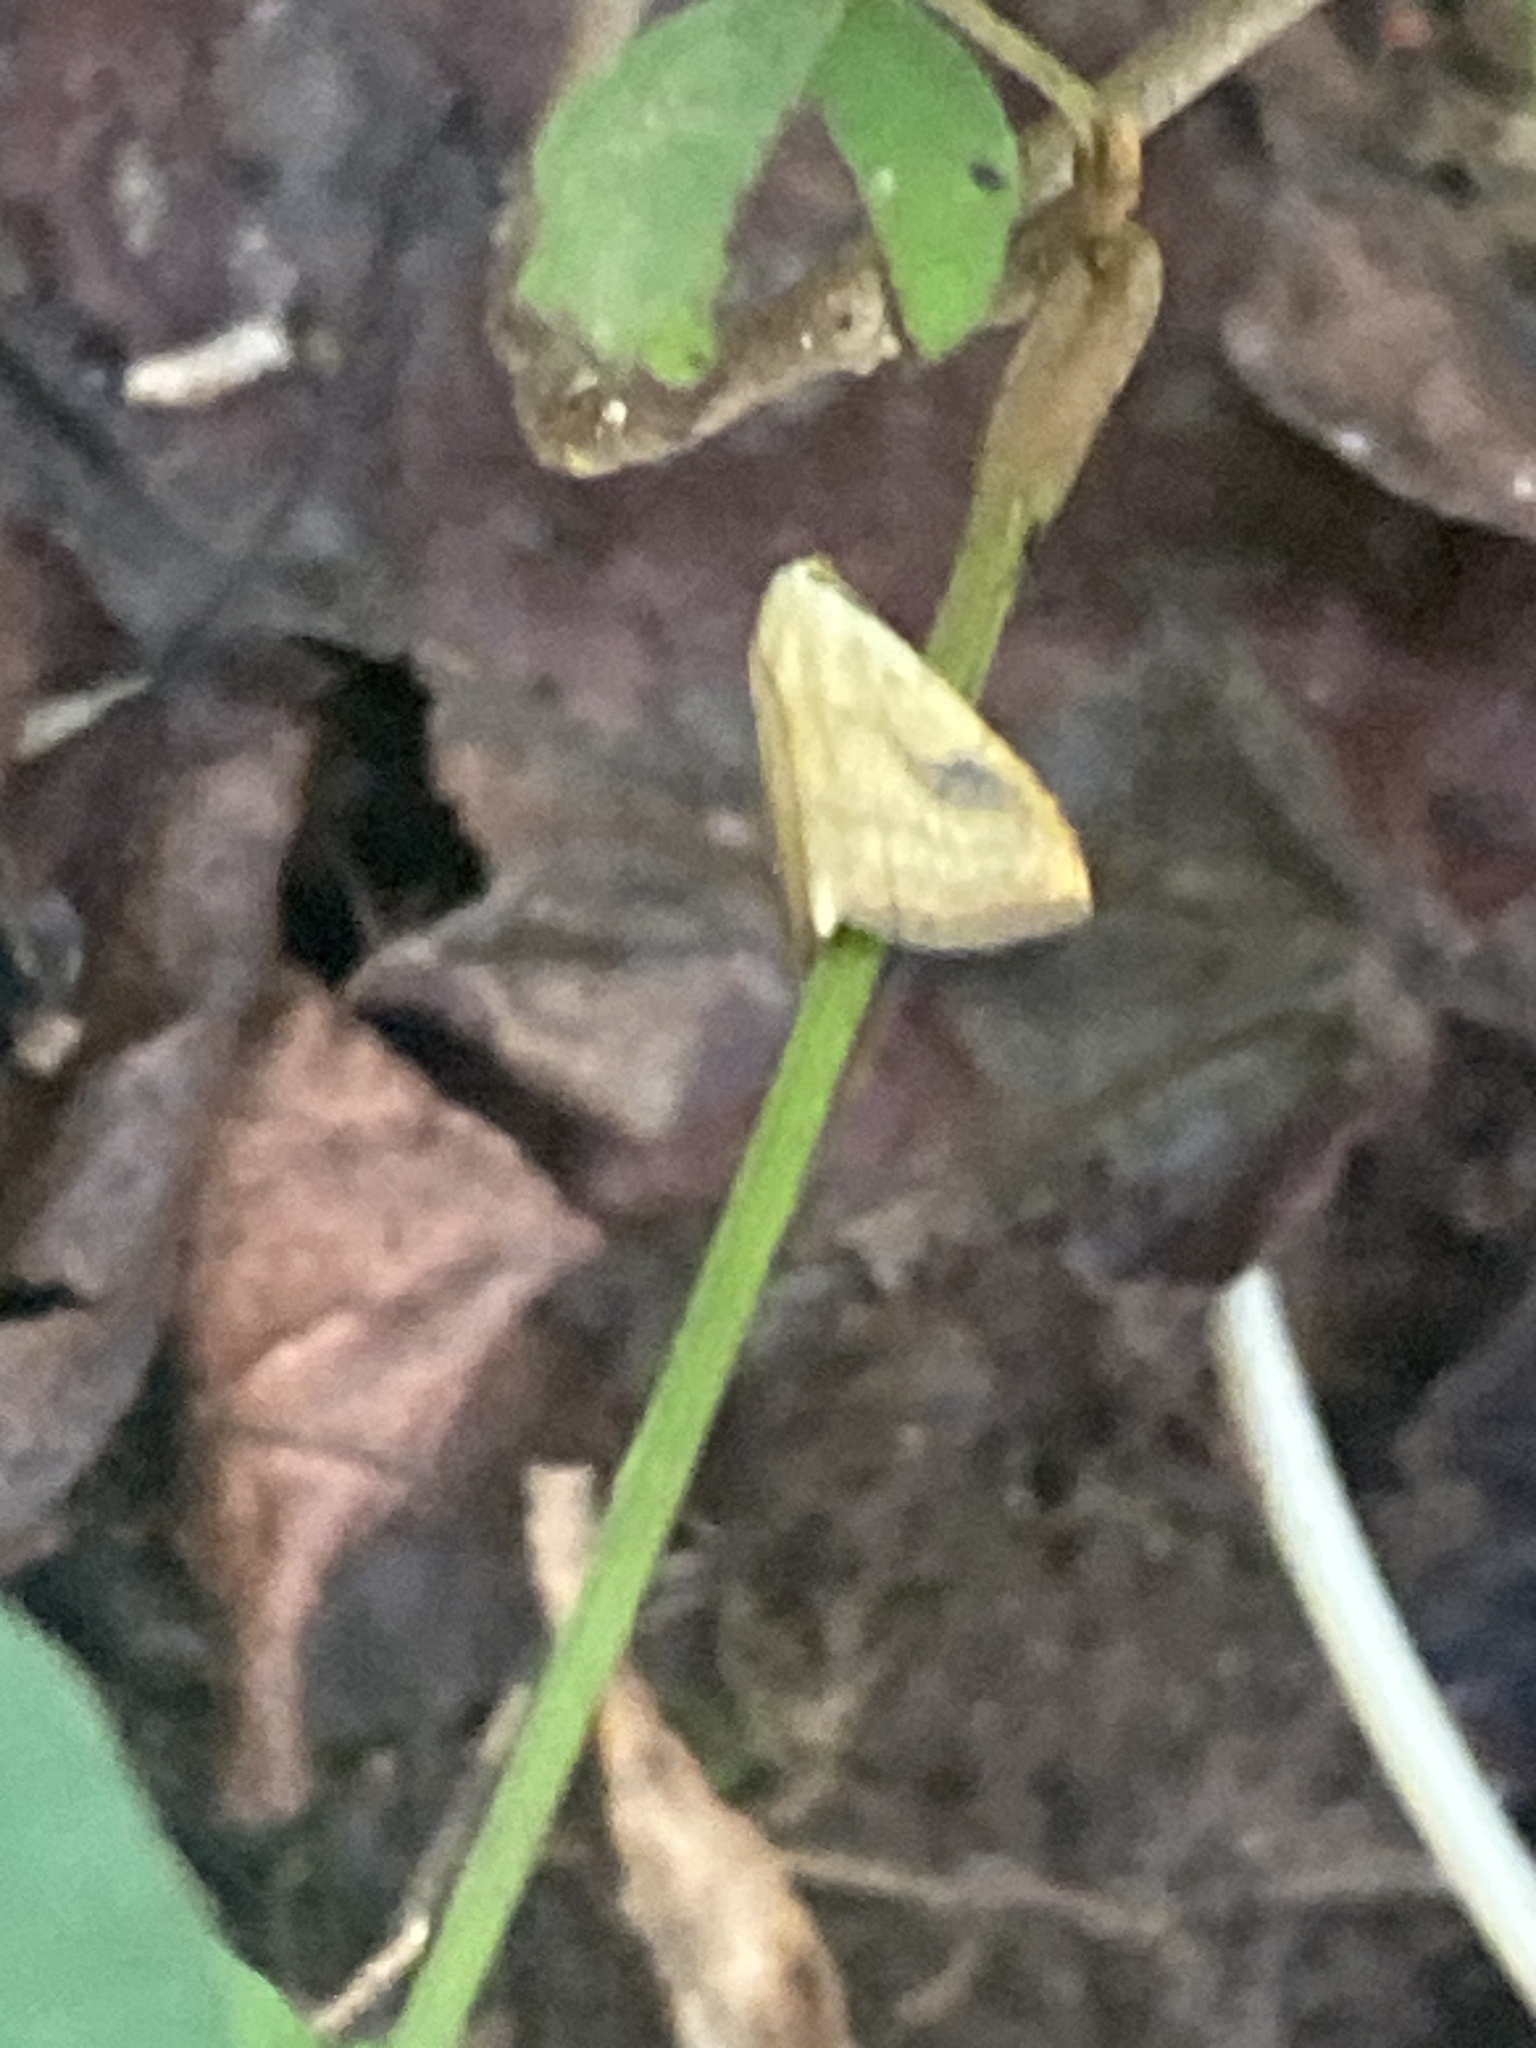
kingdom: Animalia
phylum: Arthropoda
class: Insecta
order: Lepidoptera
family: Erebidae
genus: Rivula
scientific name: Rivula propinqualis
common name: Spotted grass moth
